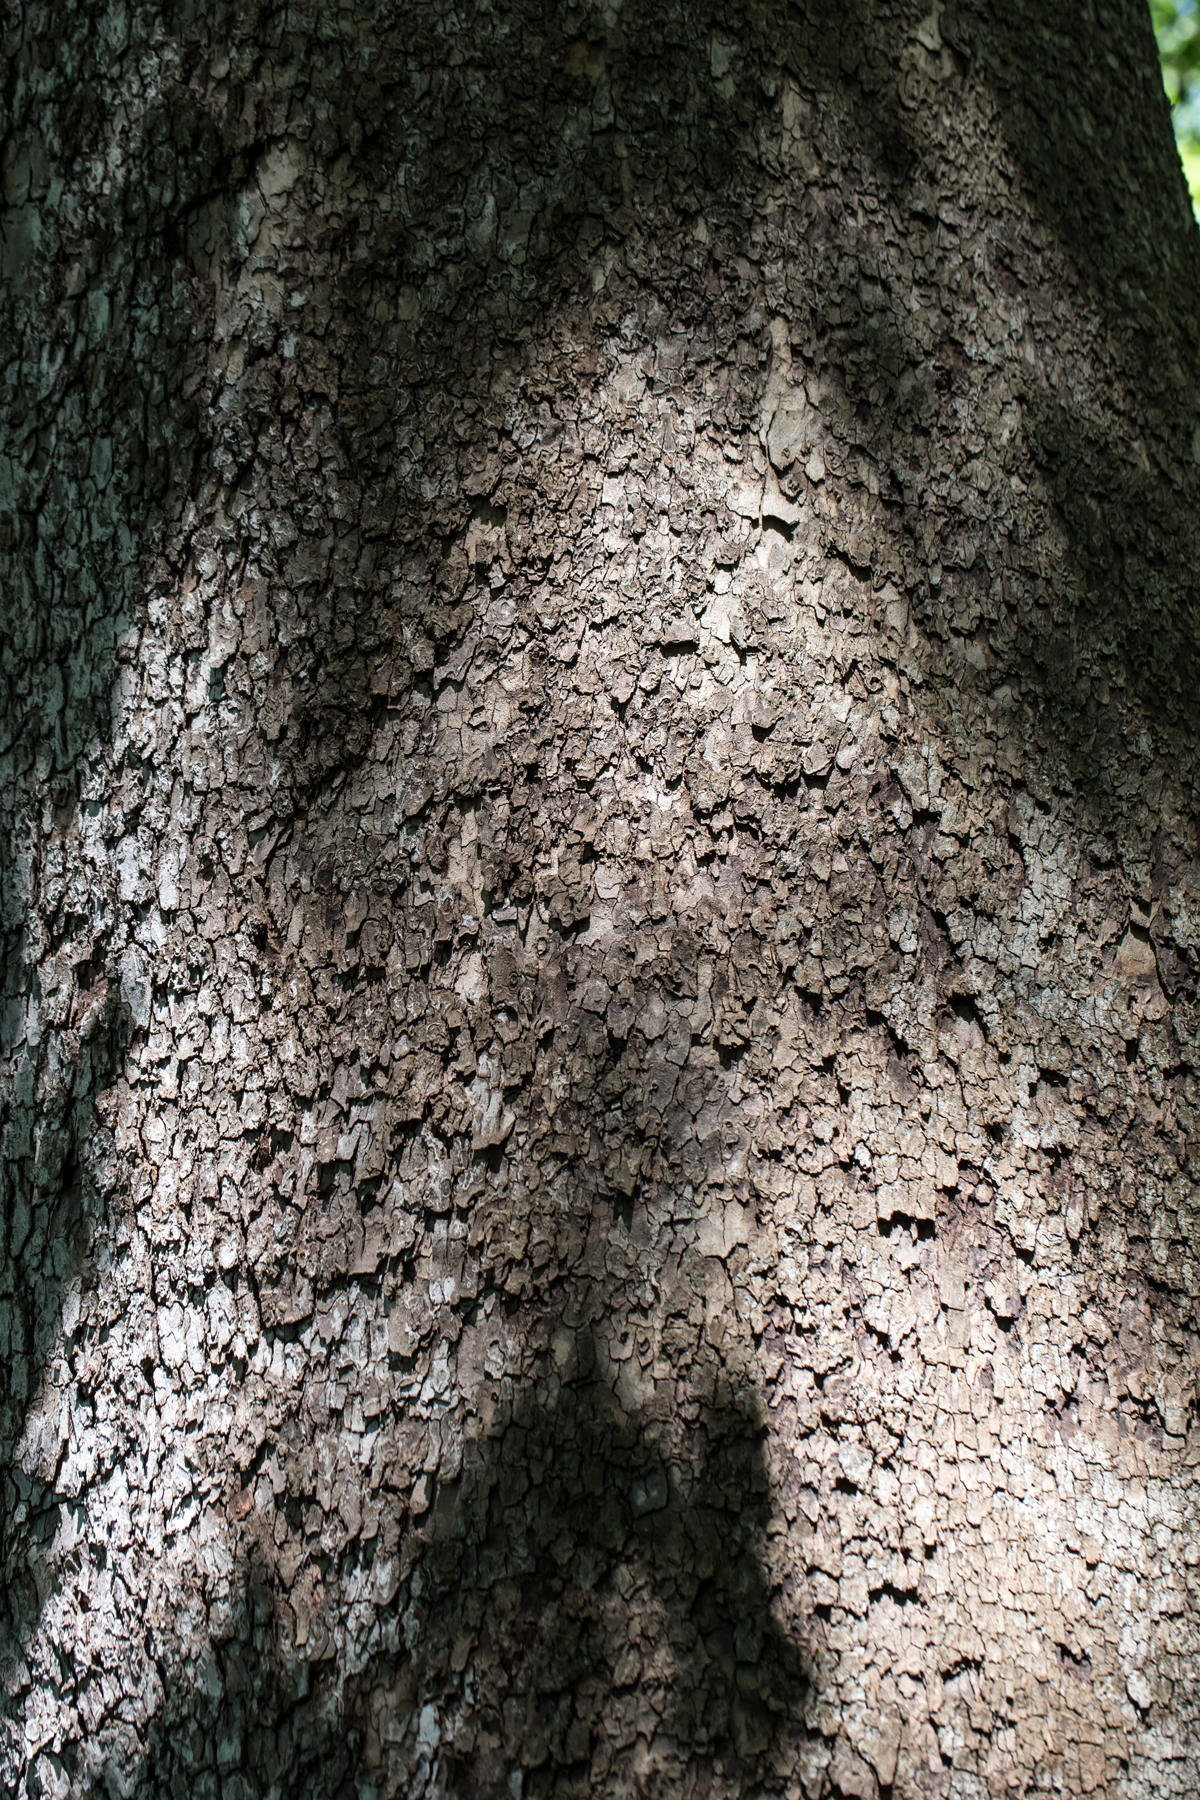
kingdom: Plantae
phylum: Tracheophyta
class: Magnoliopsida
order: Proteales
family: Platanaceae
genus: Platanus
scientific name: Platanus occidentalis
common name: American sycamore
